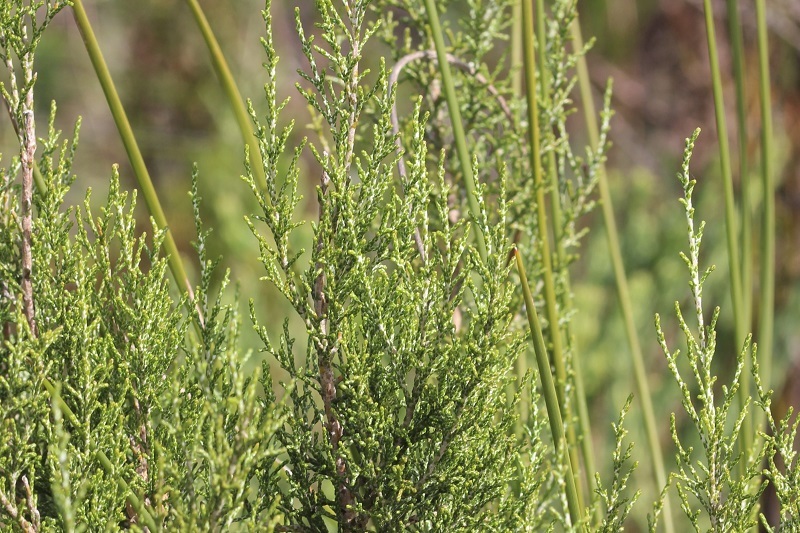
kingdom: Plantae
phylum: Tracheophyta
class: Magnoliopsida
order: Asterales
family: Asteraceae
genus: Dicerothamnus
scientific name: Dicerothamnus rhinocerotis
